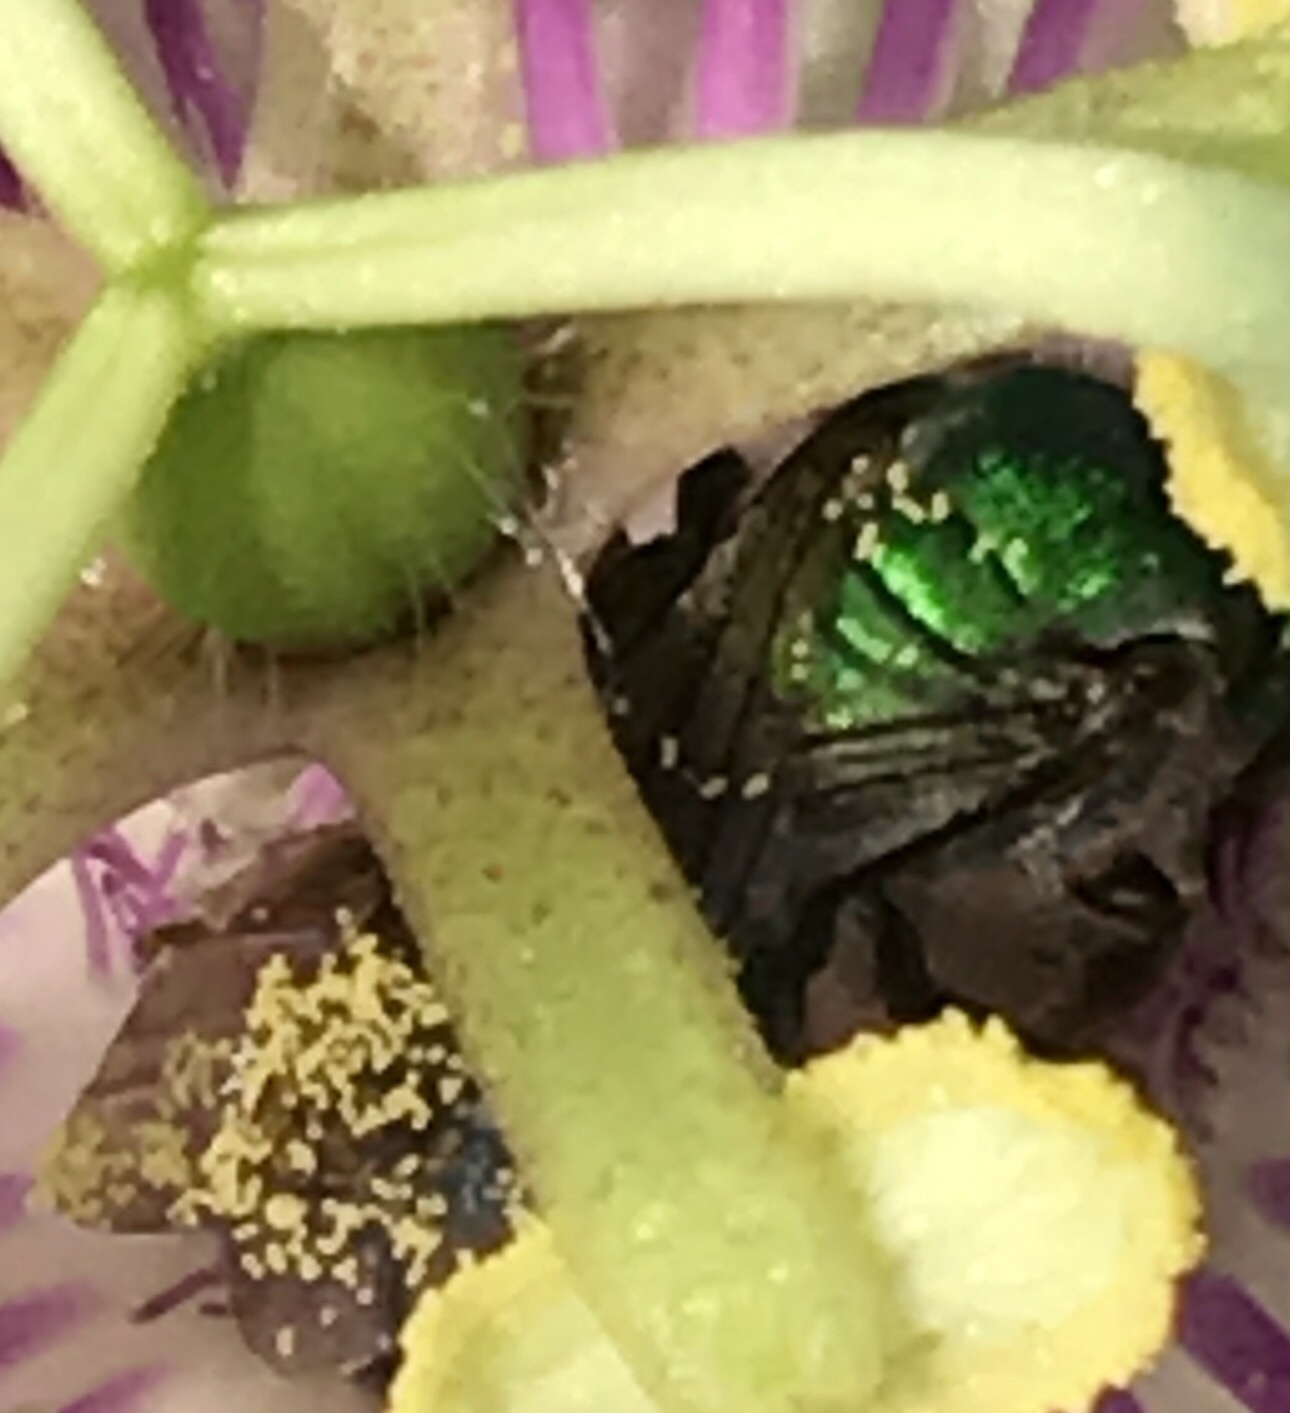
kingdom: Animalia
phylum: Arthropoda
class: Insecta
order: Hymenoptera
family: Halictidae
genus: Pseudaugochlora
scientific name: Pseudaugochlora graminea
